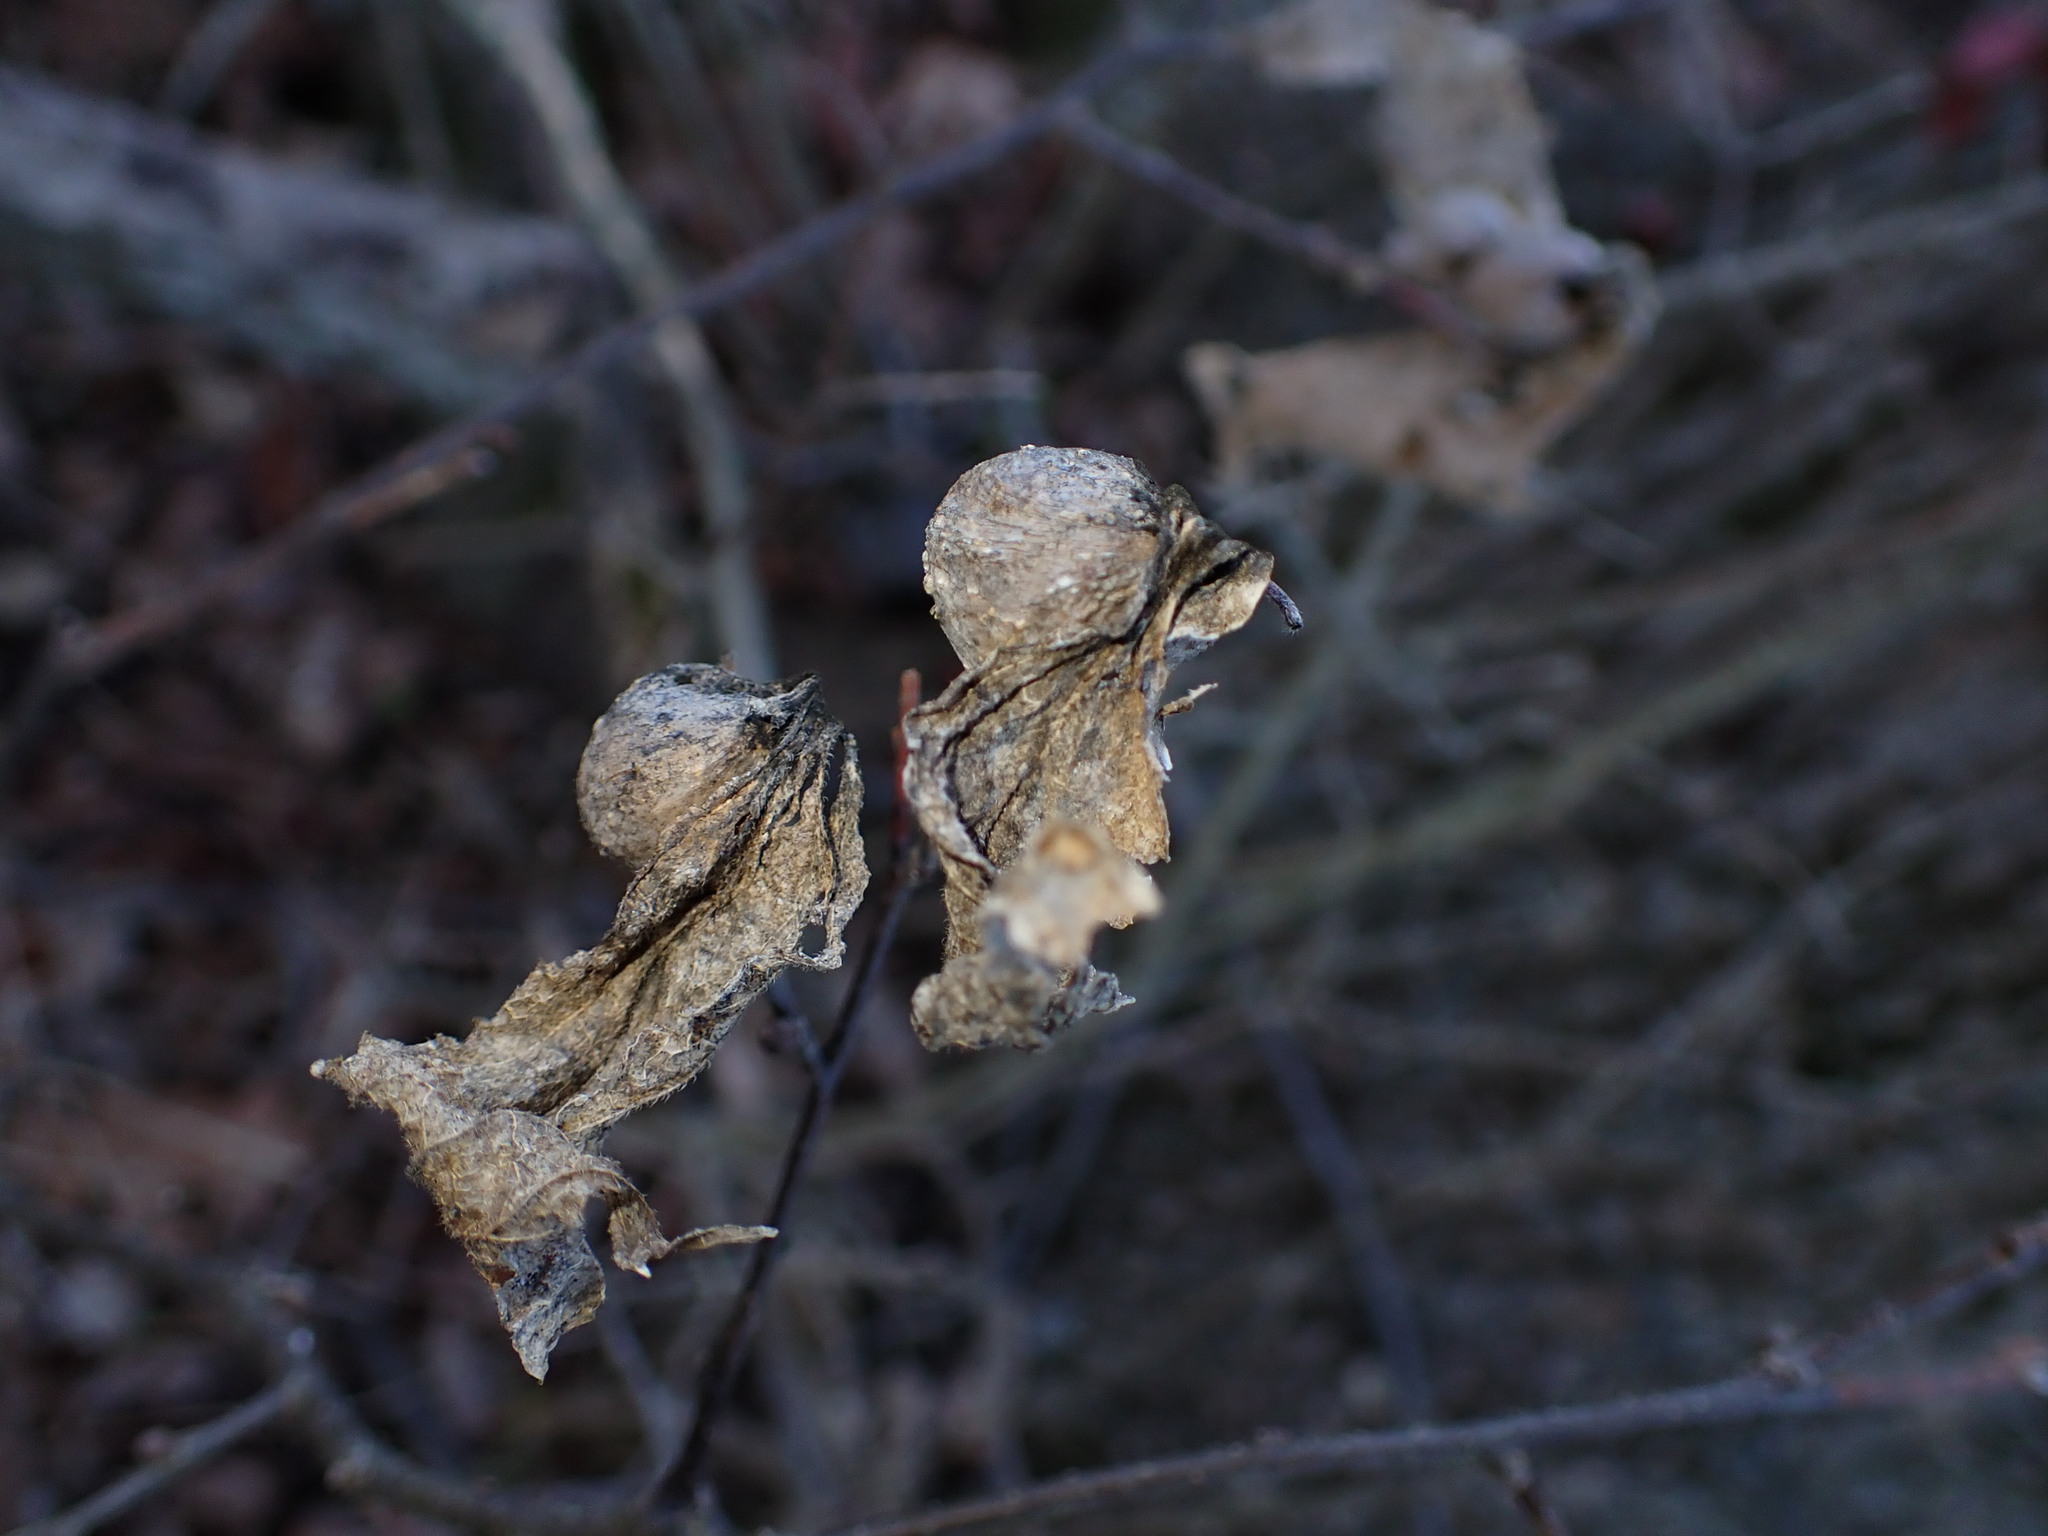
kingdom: Animalia
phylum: Arthropoda
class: Insecta
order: Hemiptera
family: Aphalaridae
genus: Pachypsylla
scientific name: Pachypsylla venusta
